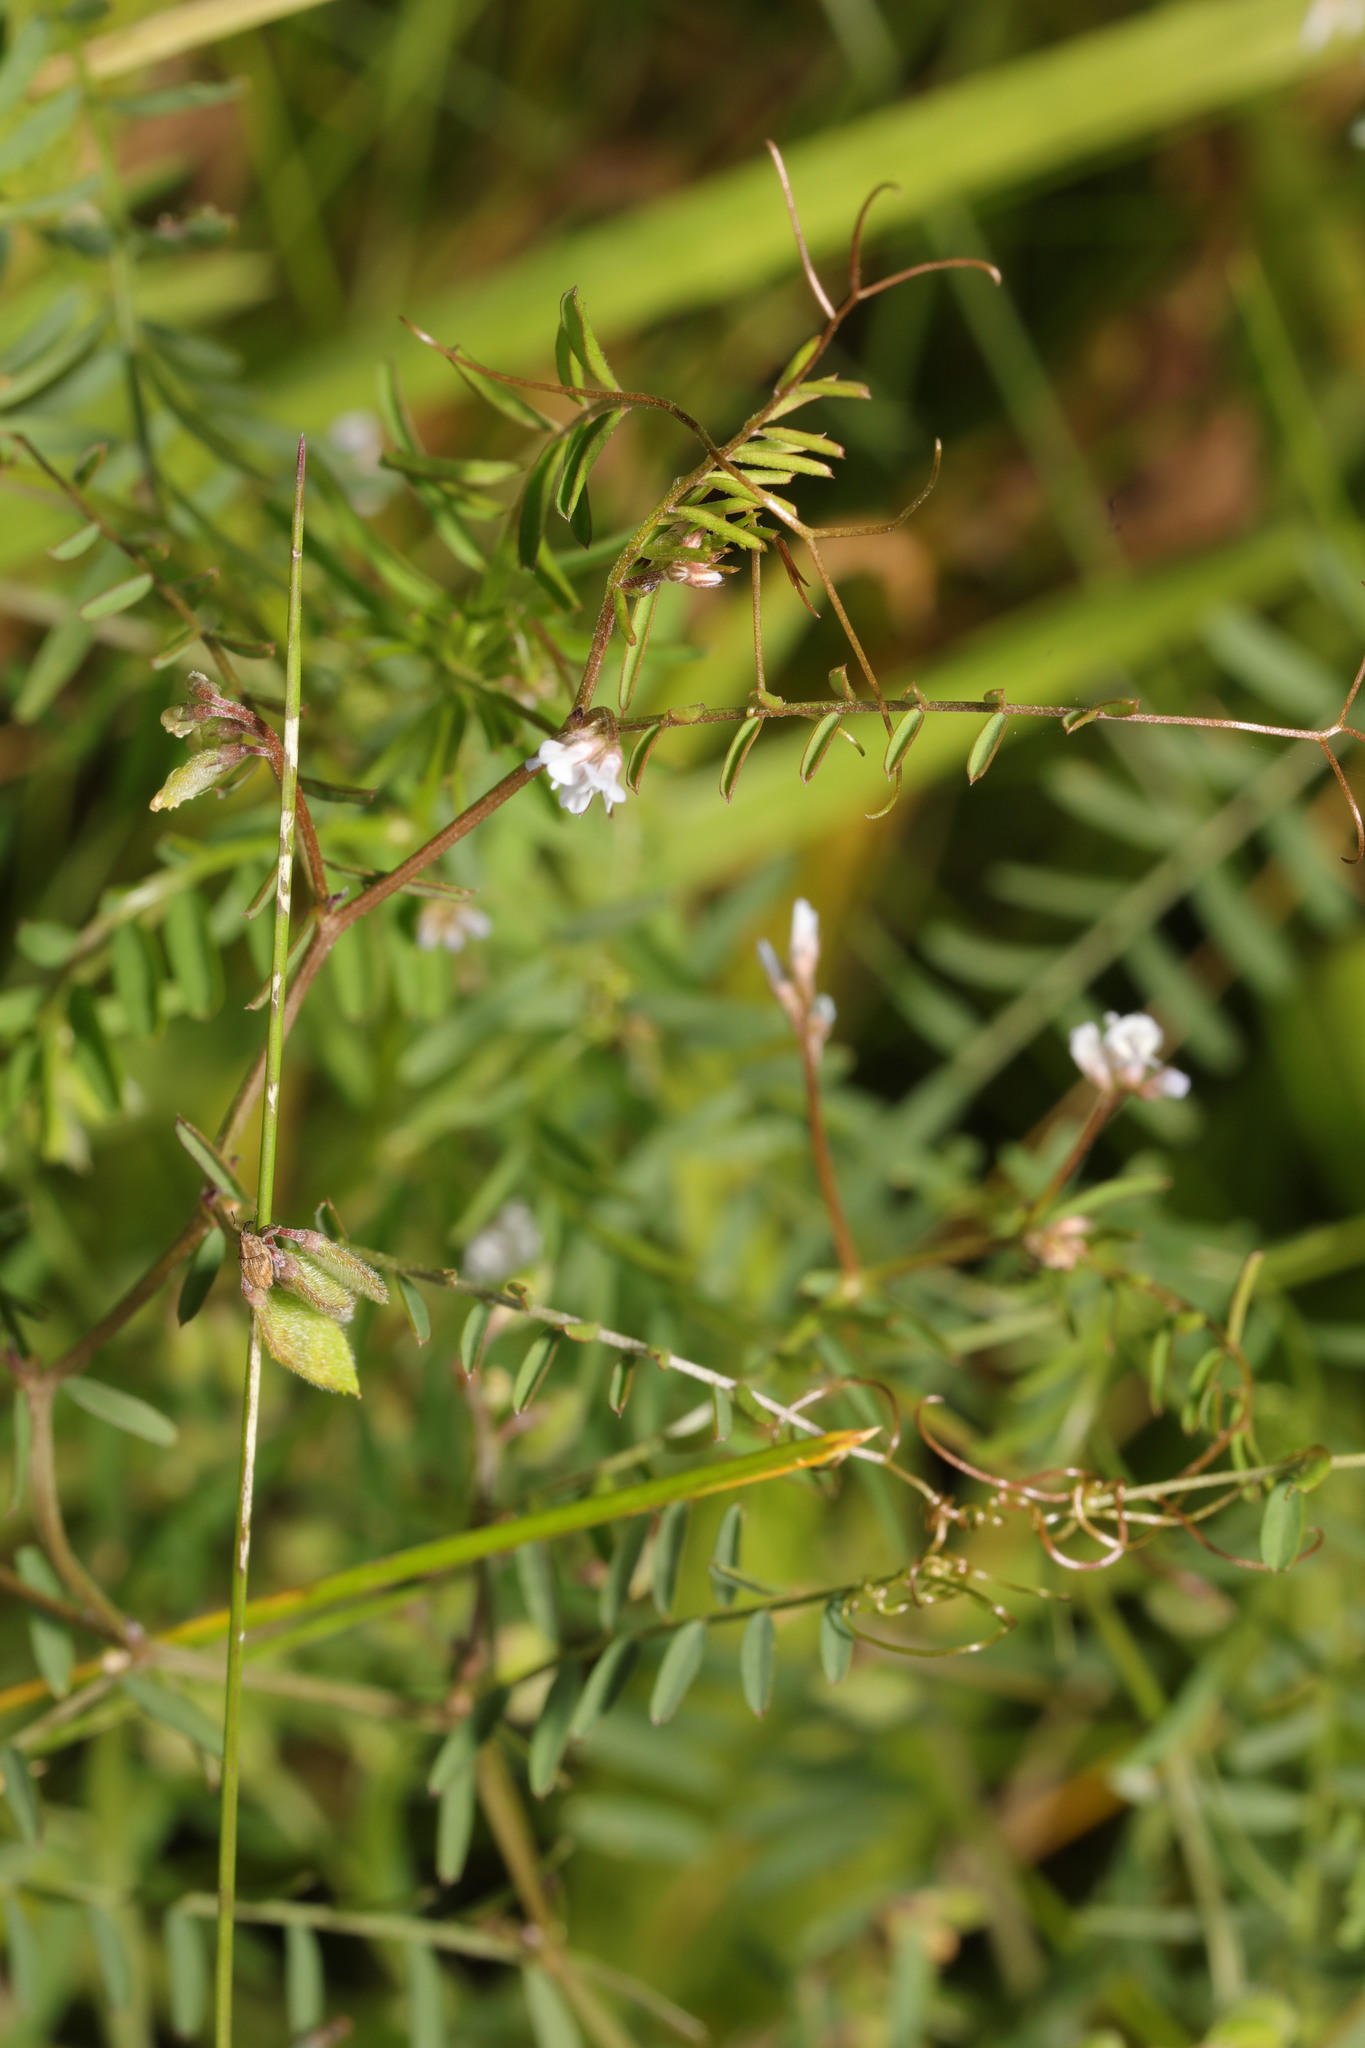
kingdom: Plantae
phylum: Tracheophyta
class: Magnoliopsida
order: Fabales
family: Fabaceae
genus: Vicia
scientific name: Vicia hirsuta
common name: Tiny vetch
